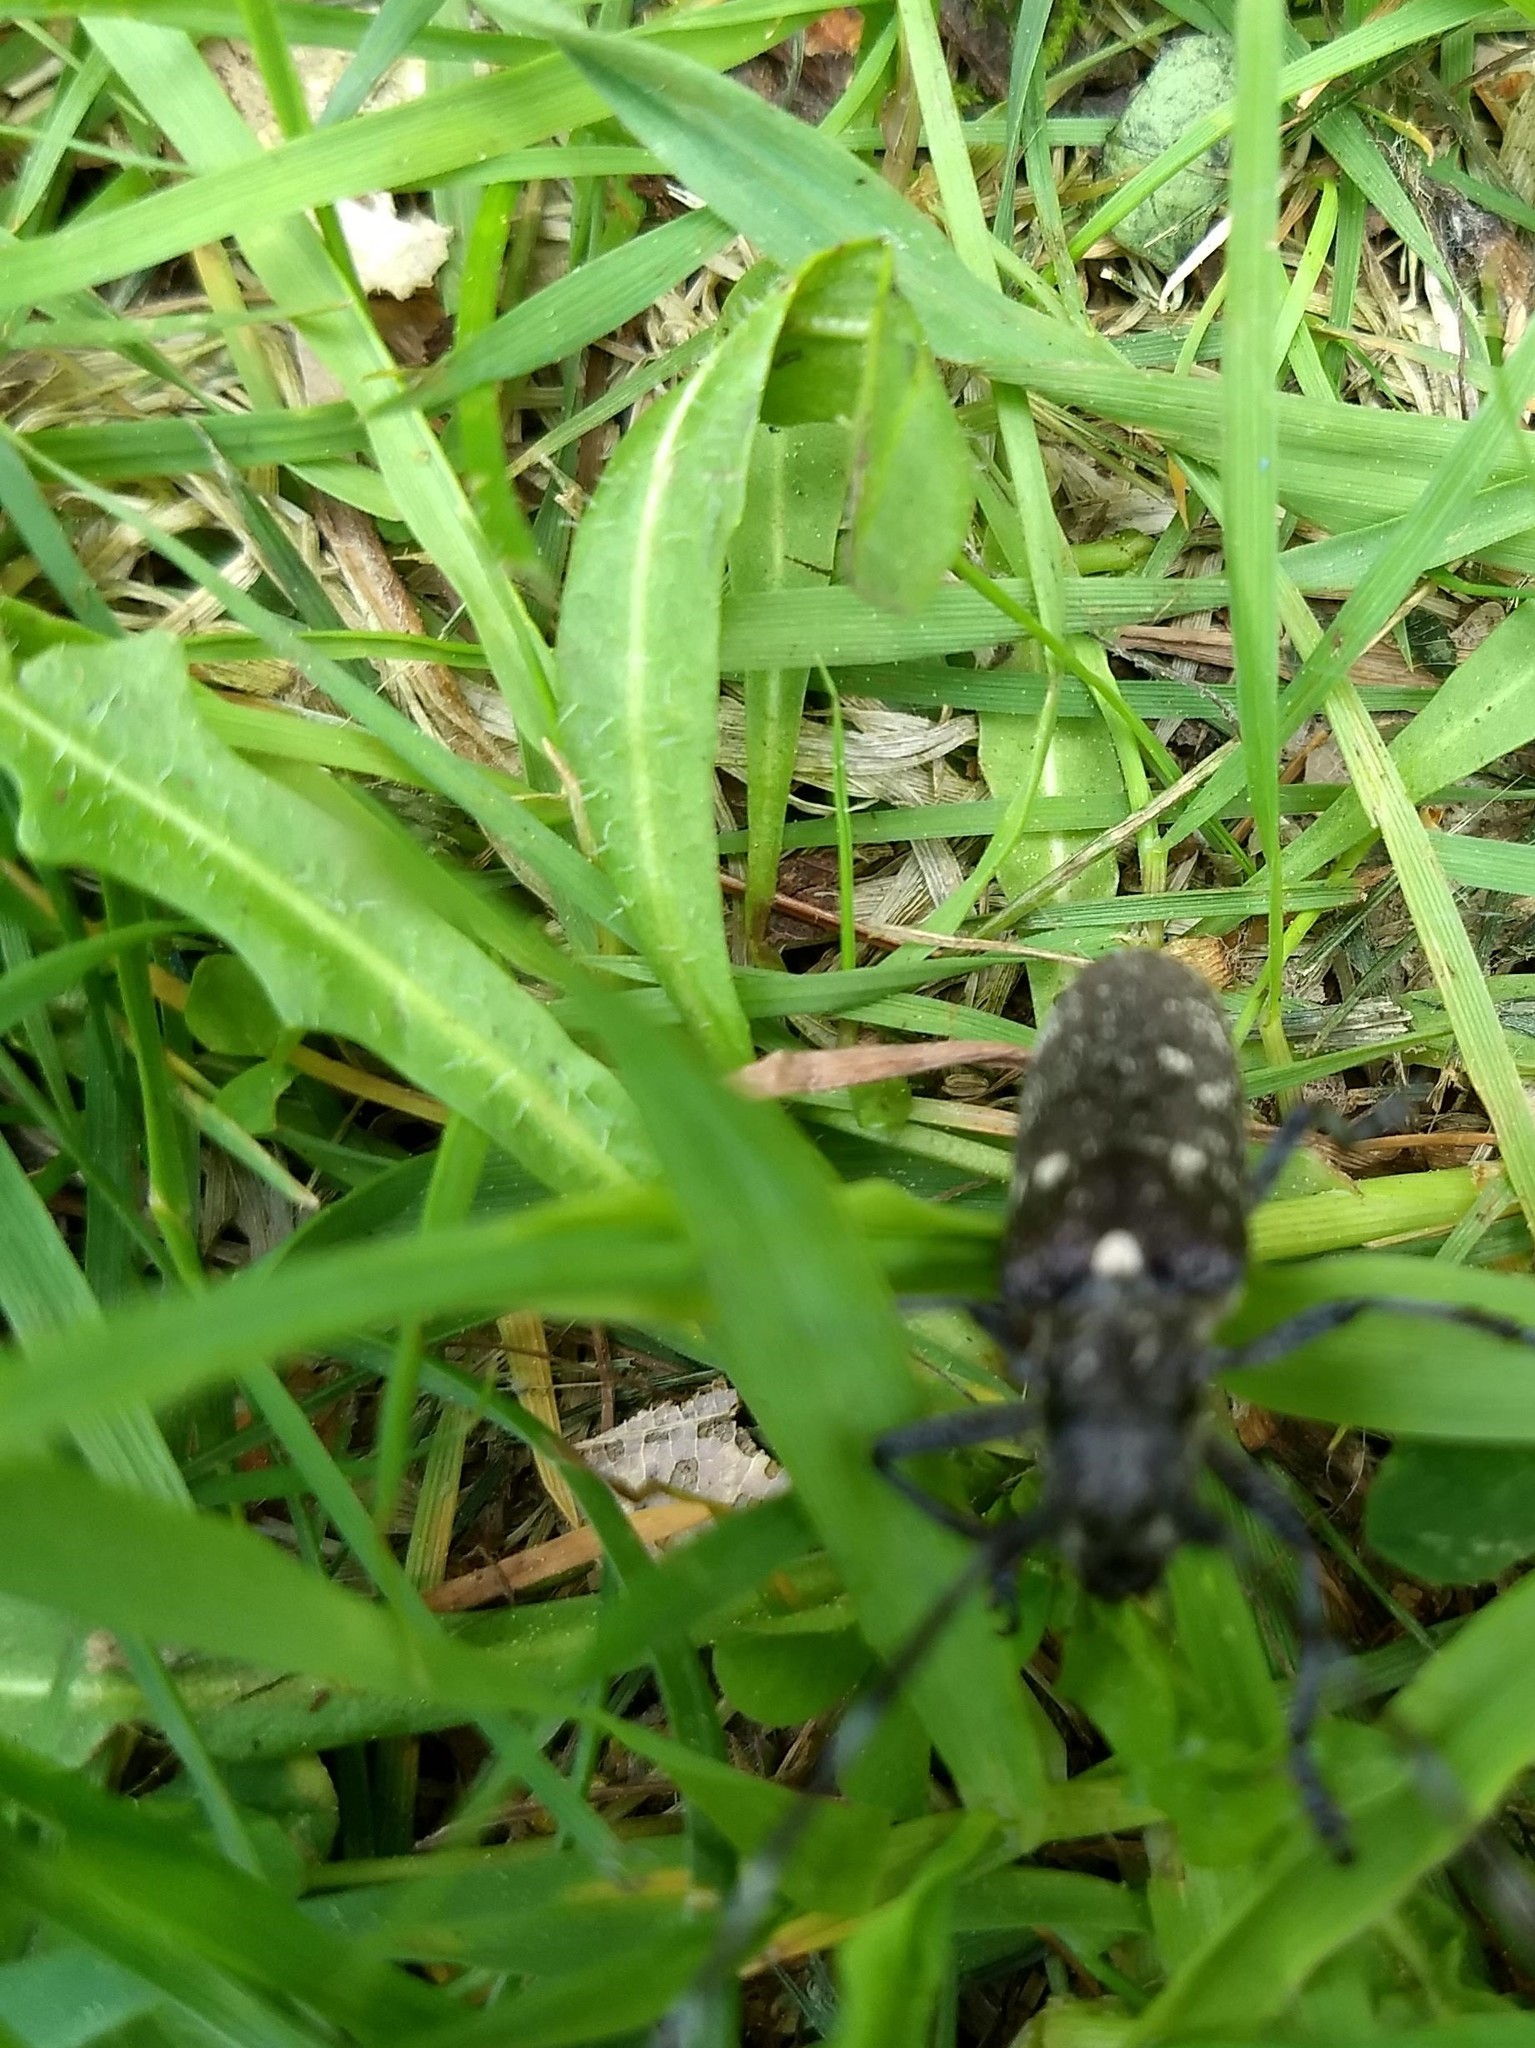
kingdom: Animalia
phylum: Arthropoda
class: Insecta
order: Coleoptera
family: Cerambycidae
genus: Monochamus
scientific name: Monochamus scutellatus
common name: White-spotted sawyer beetle
